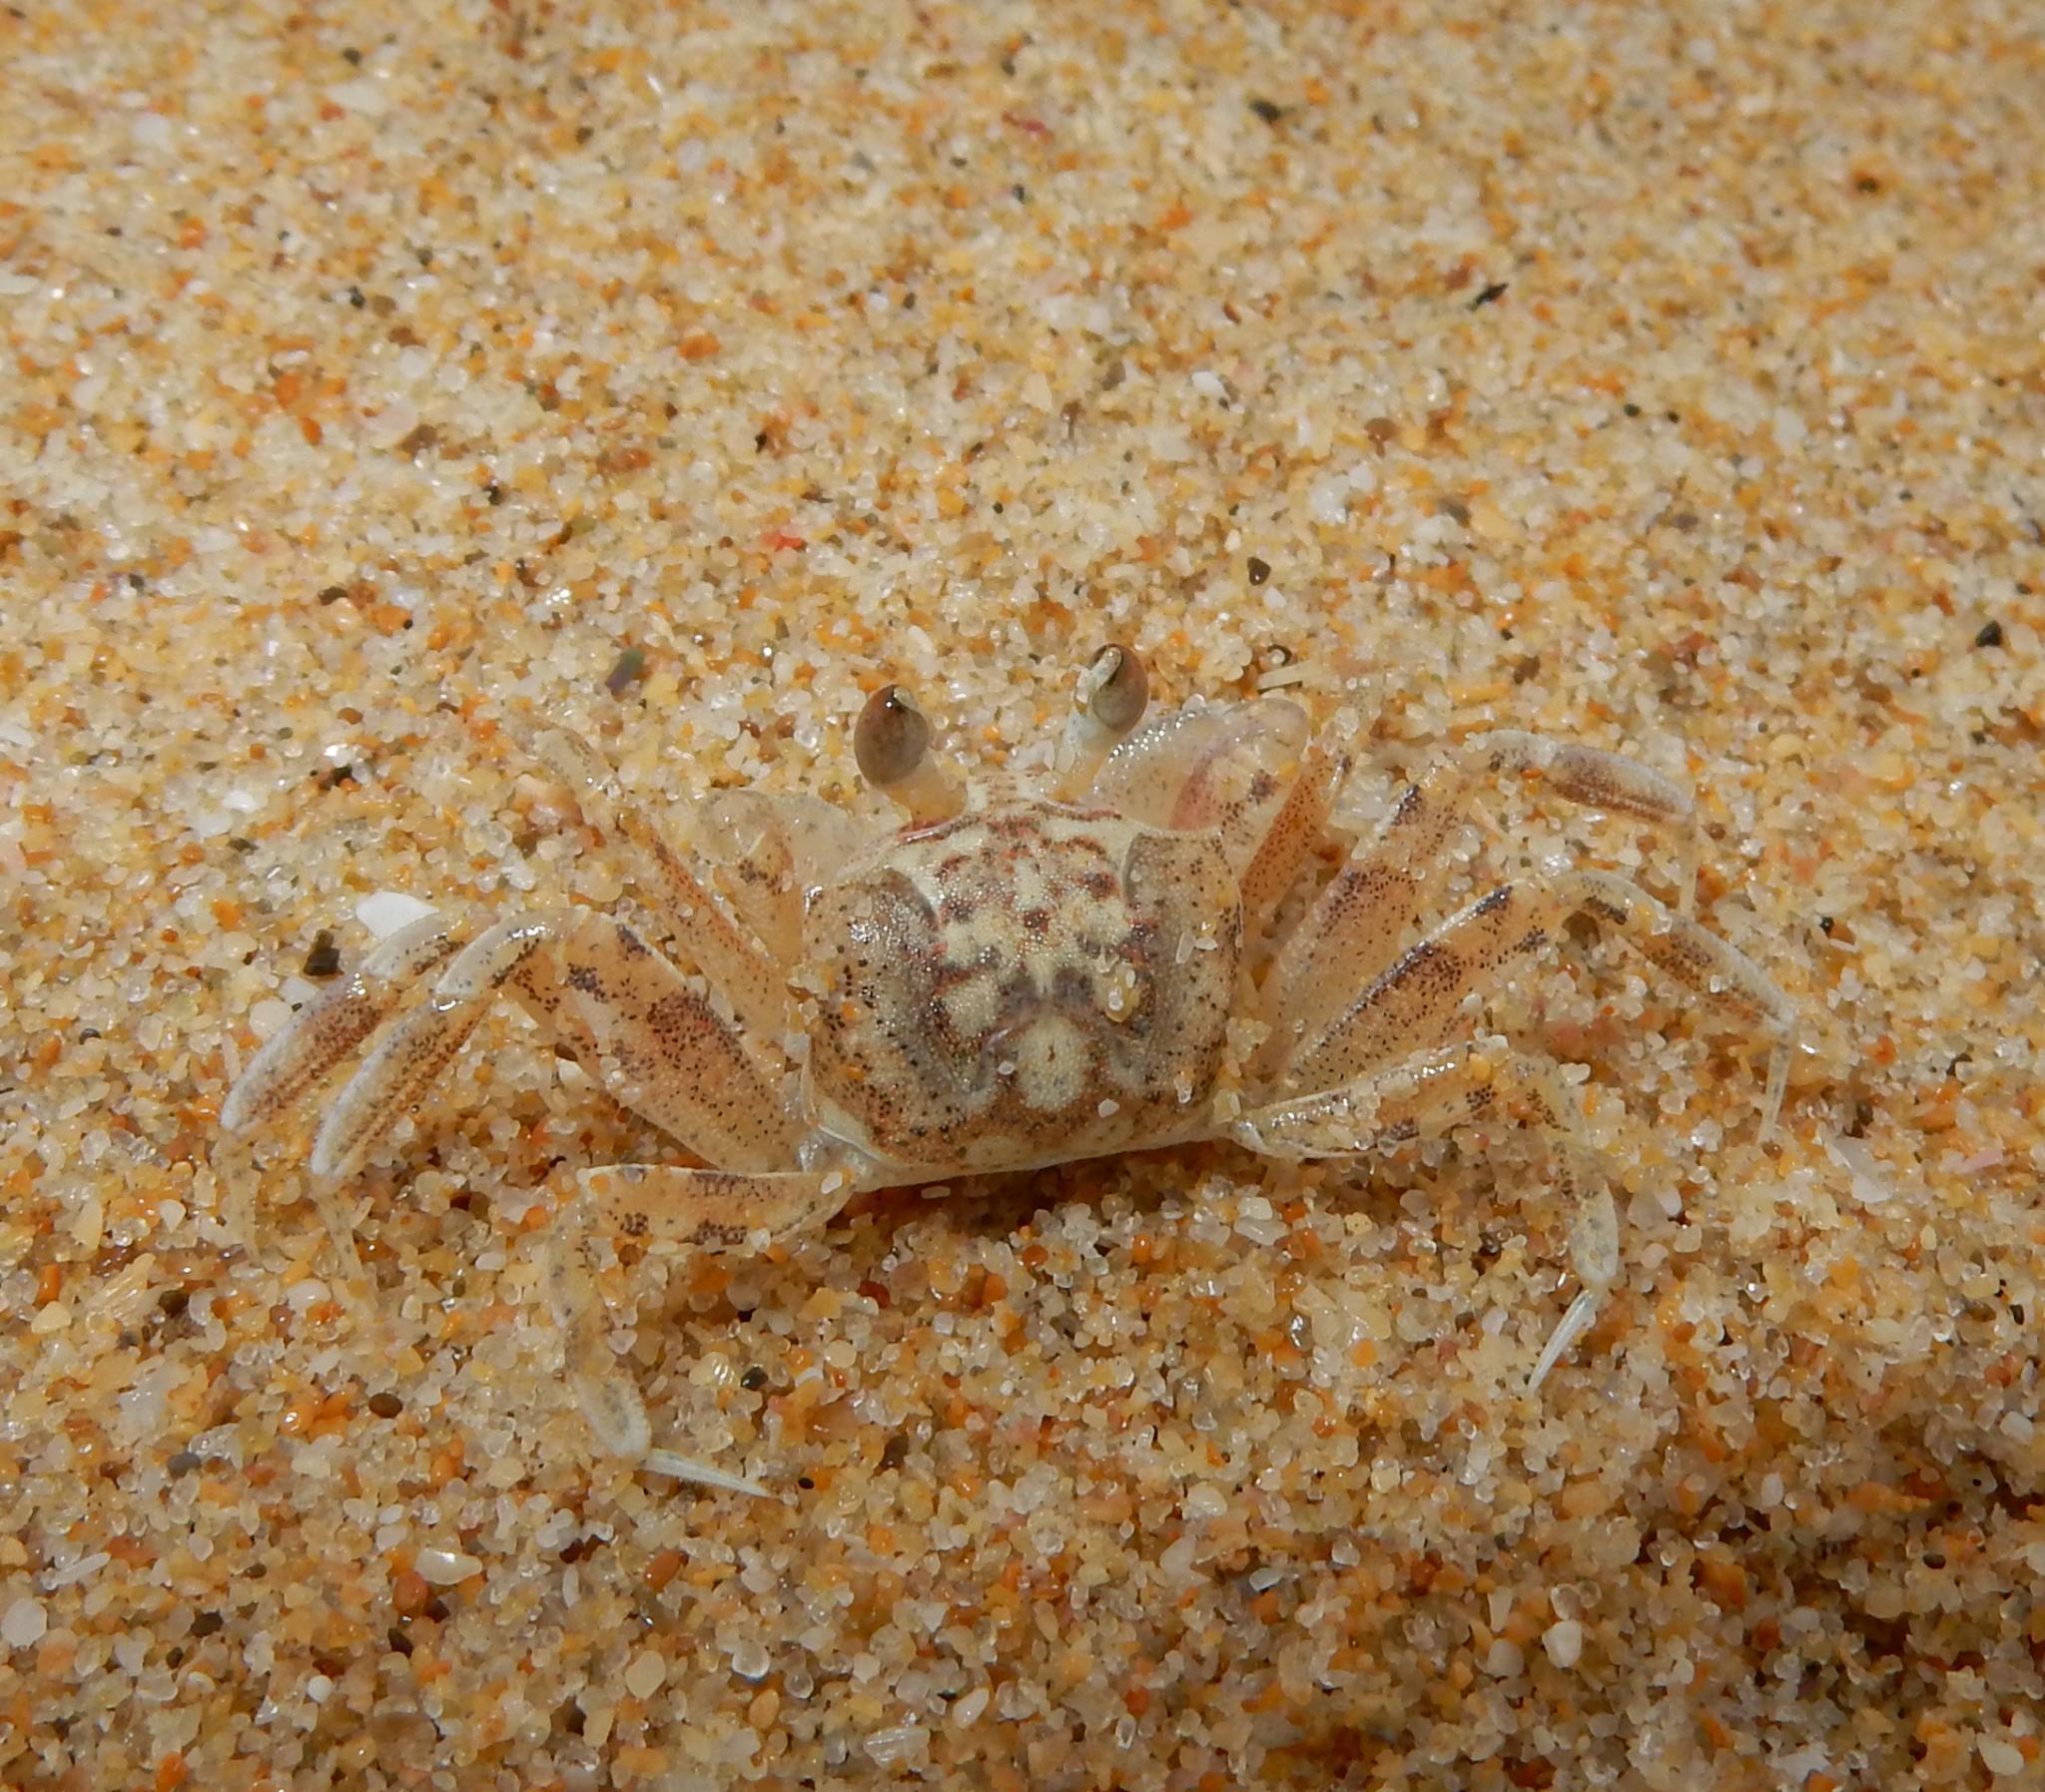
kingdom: Animalia
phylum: Arthropoda
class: Malacostraca
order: Decapoda
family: Ocypodidae
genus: Ocypode
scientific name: Ocypode
